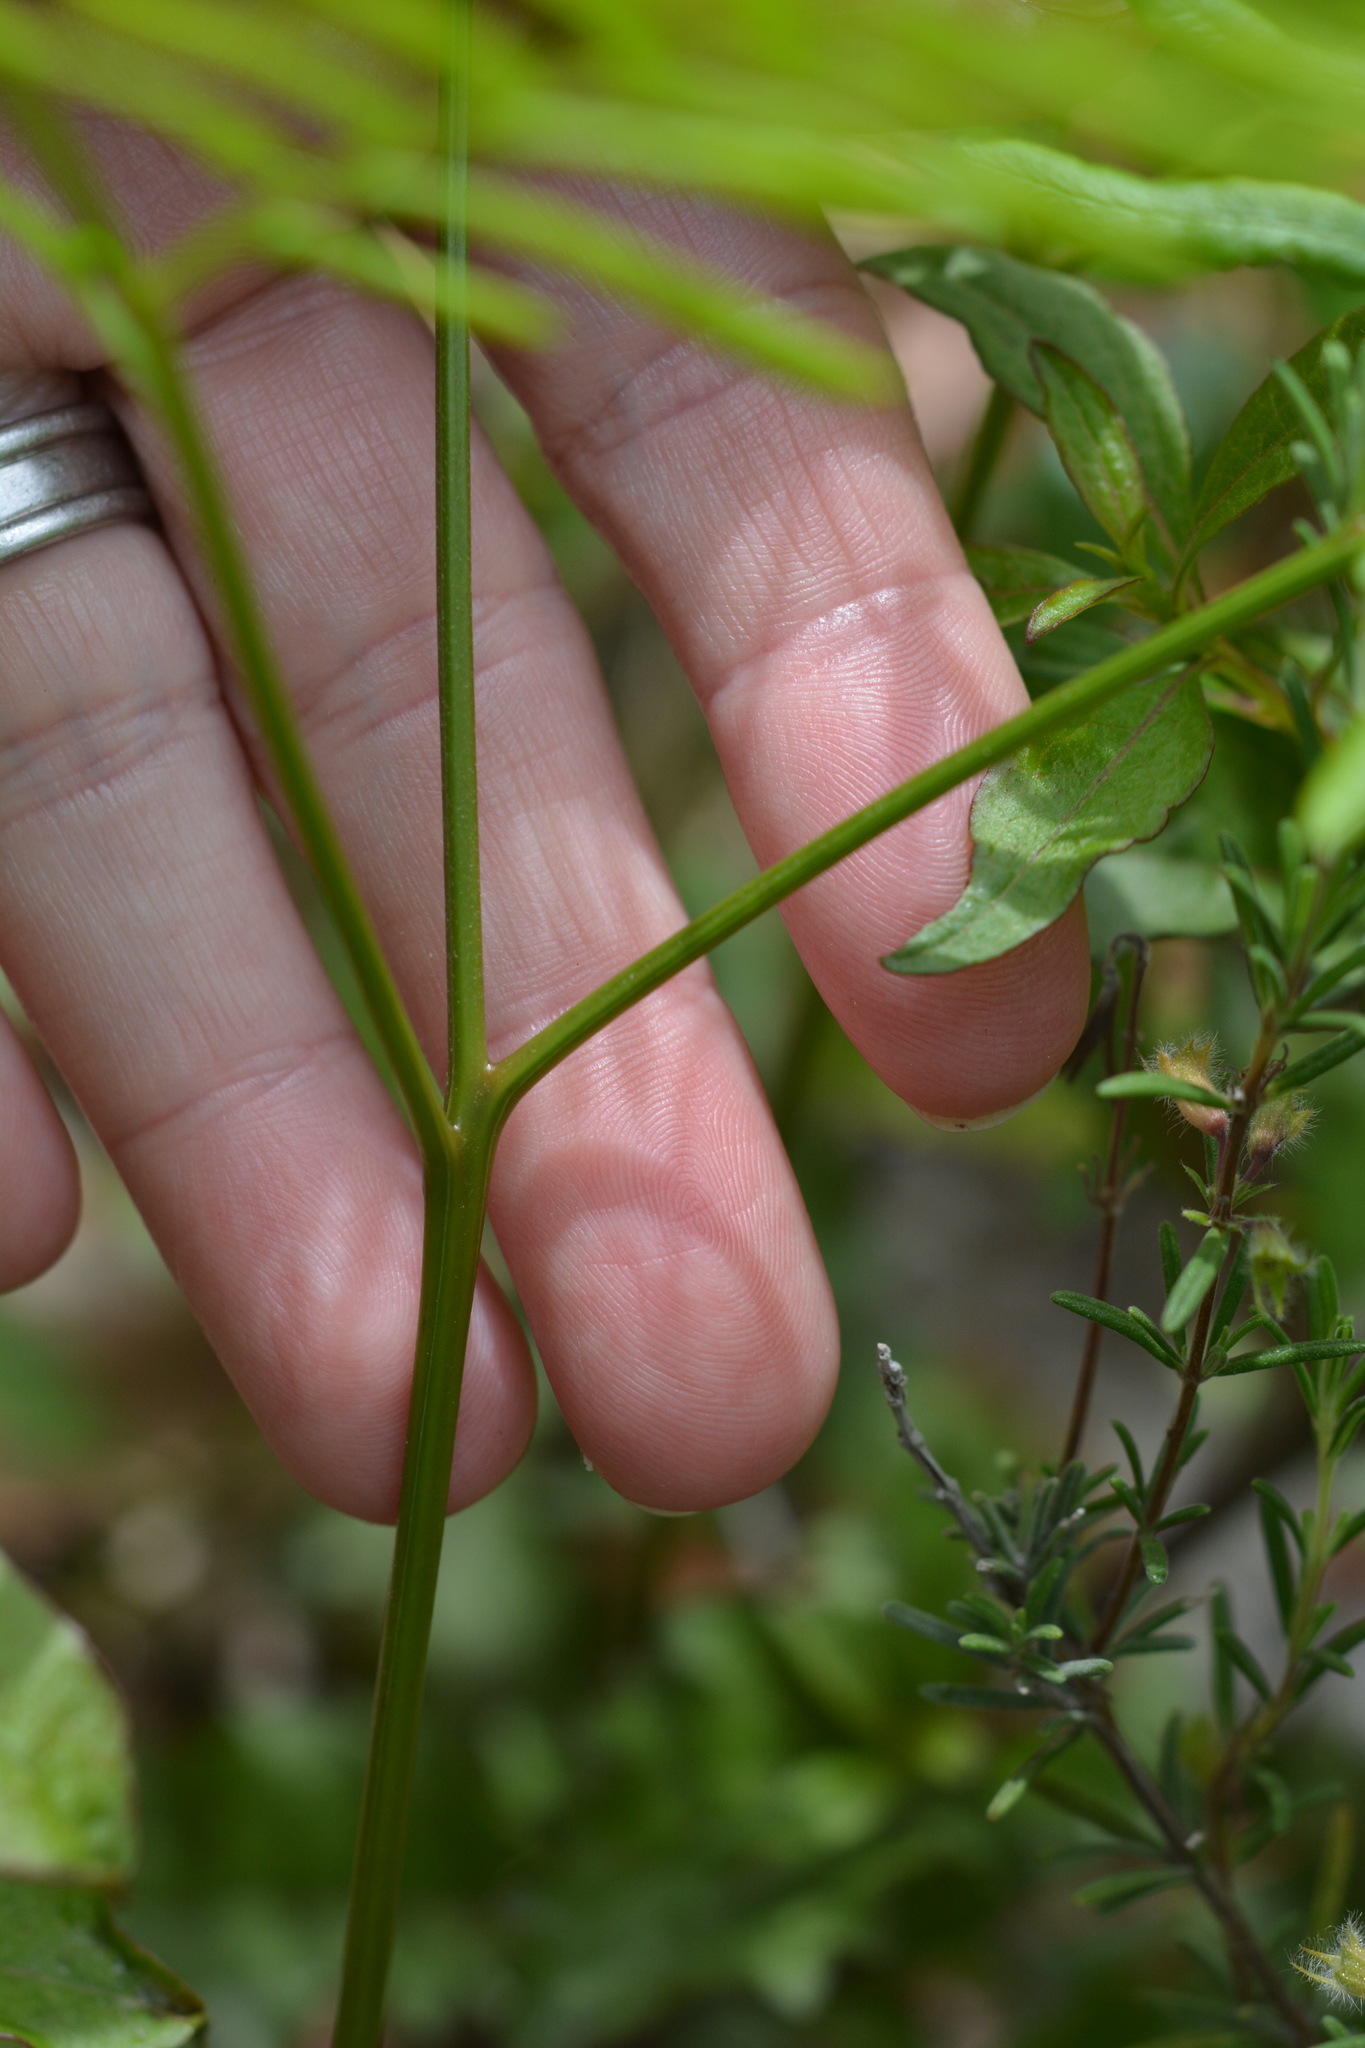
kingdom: Plantae
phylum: Tracheophyta
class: Polypodiopsida
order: Polypodiales
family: Dennstaedtiaceae
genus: Pteridium
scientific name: Pteridium
